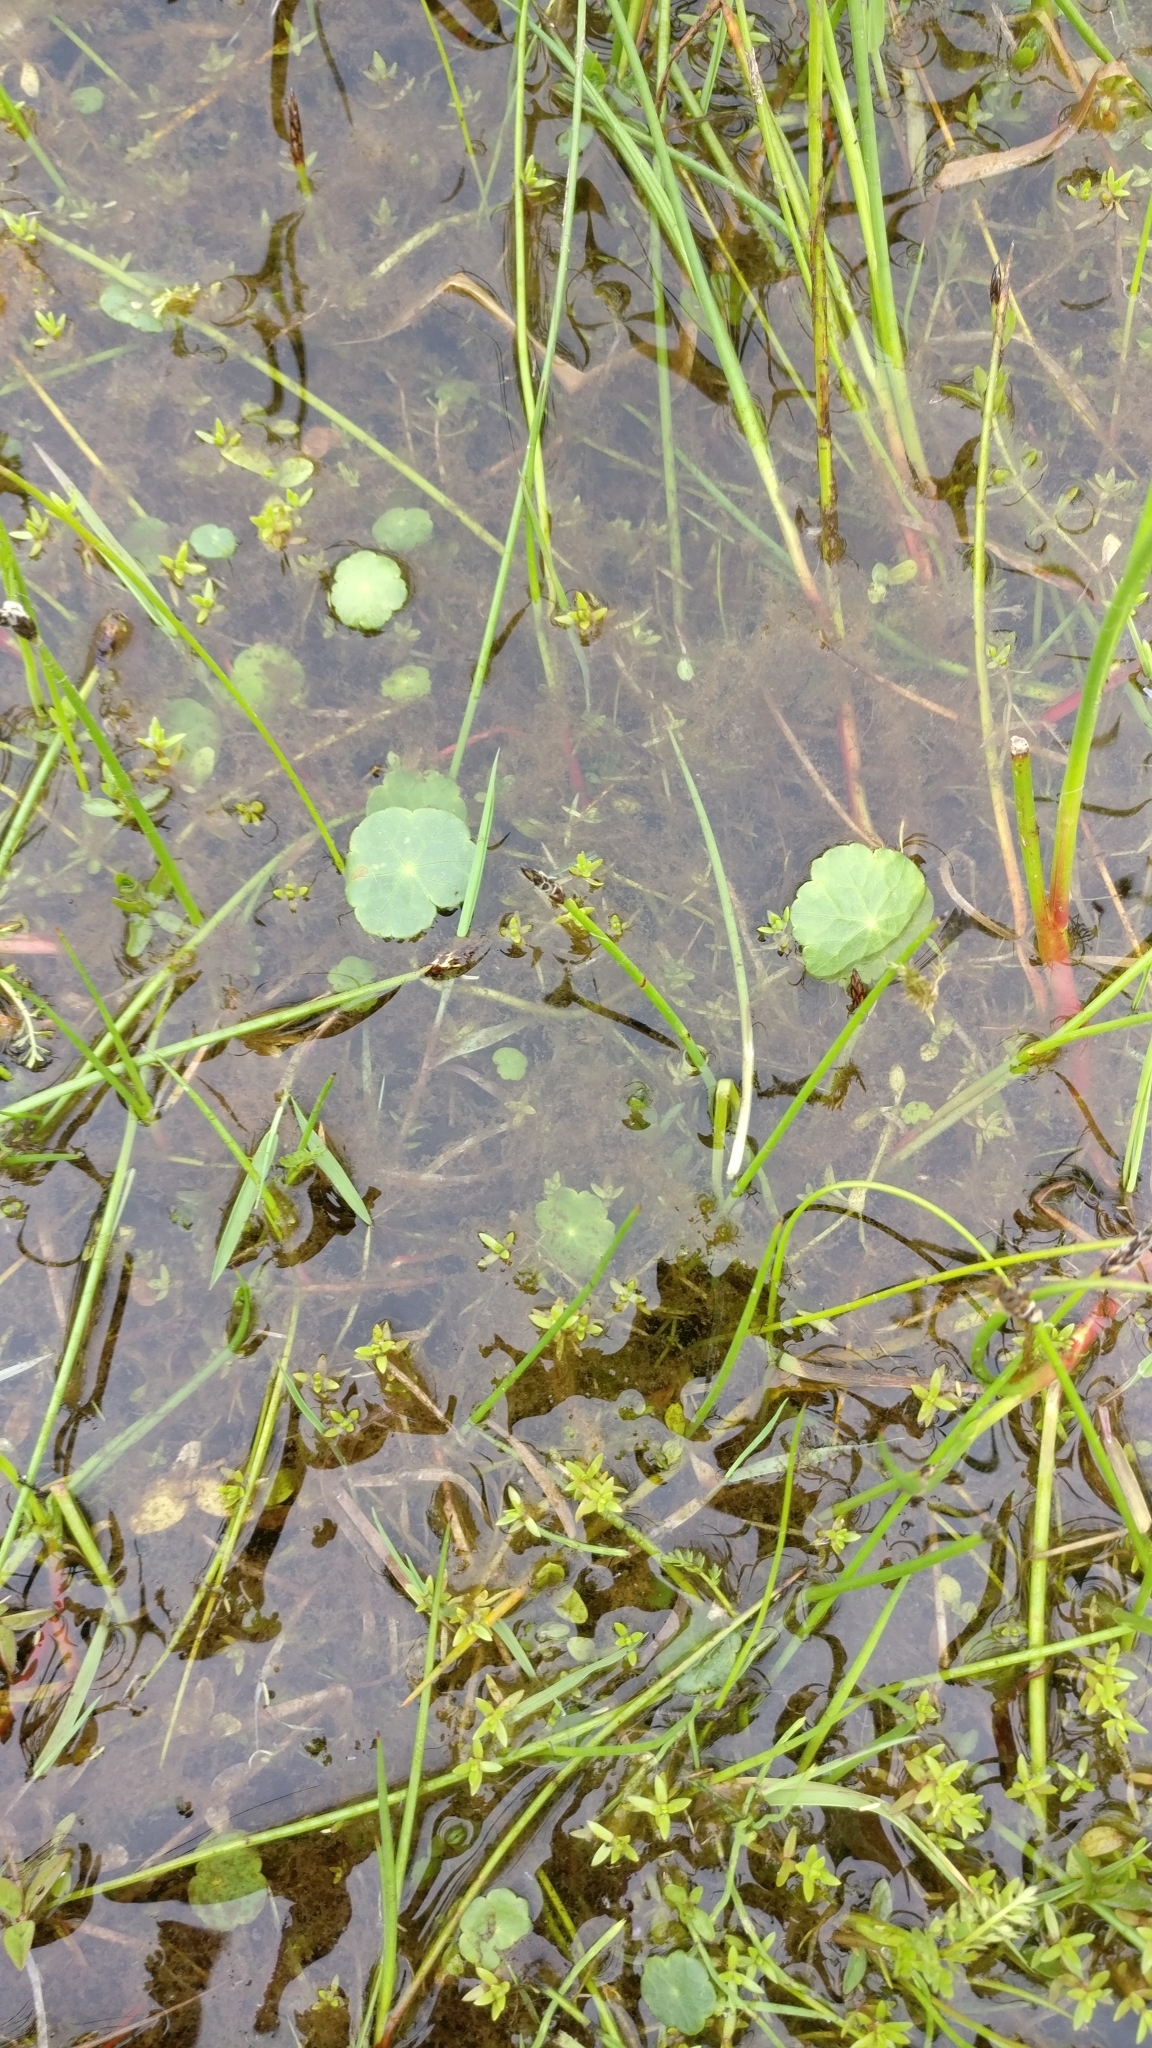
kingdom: Plantae
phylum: Tracheophyta
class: Magnoliopsida
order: Apiales
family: Araliaceae
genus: Hydrocotyle
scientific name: Hydrocotyle vulgaris
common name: Marsh pennywort
